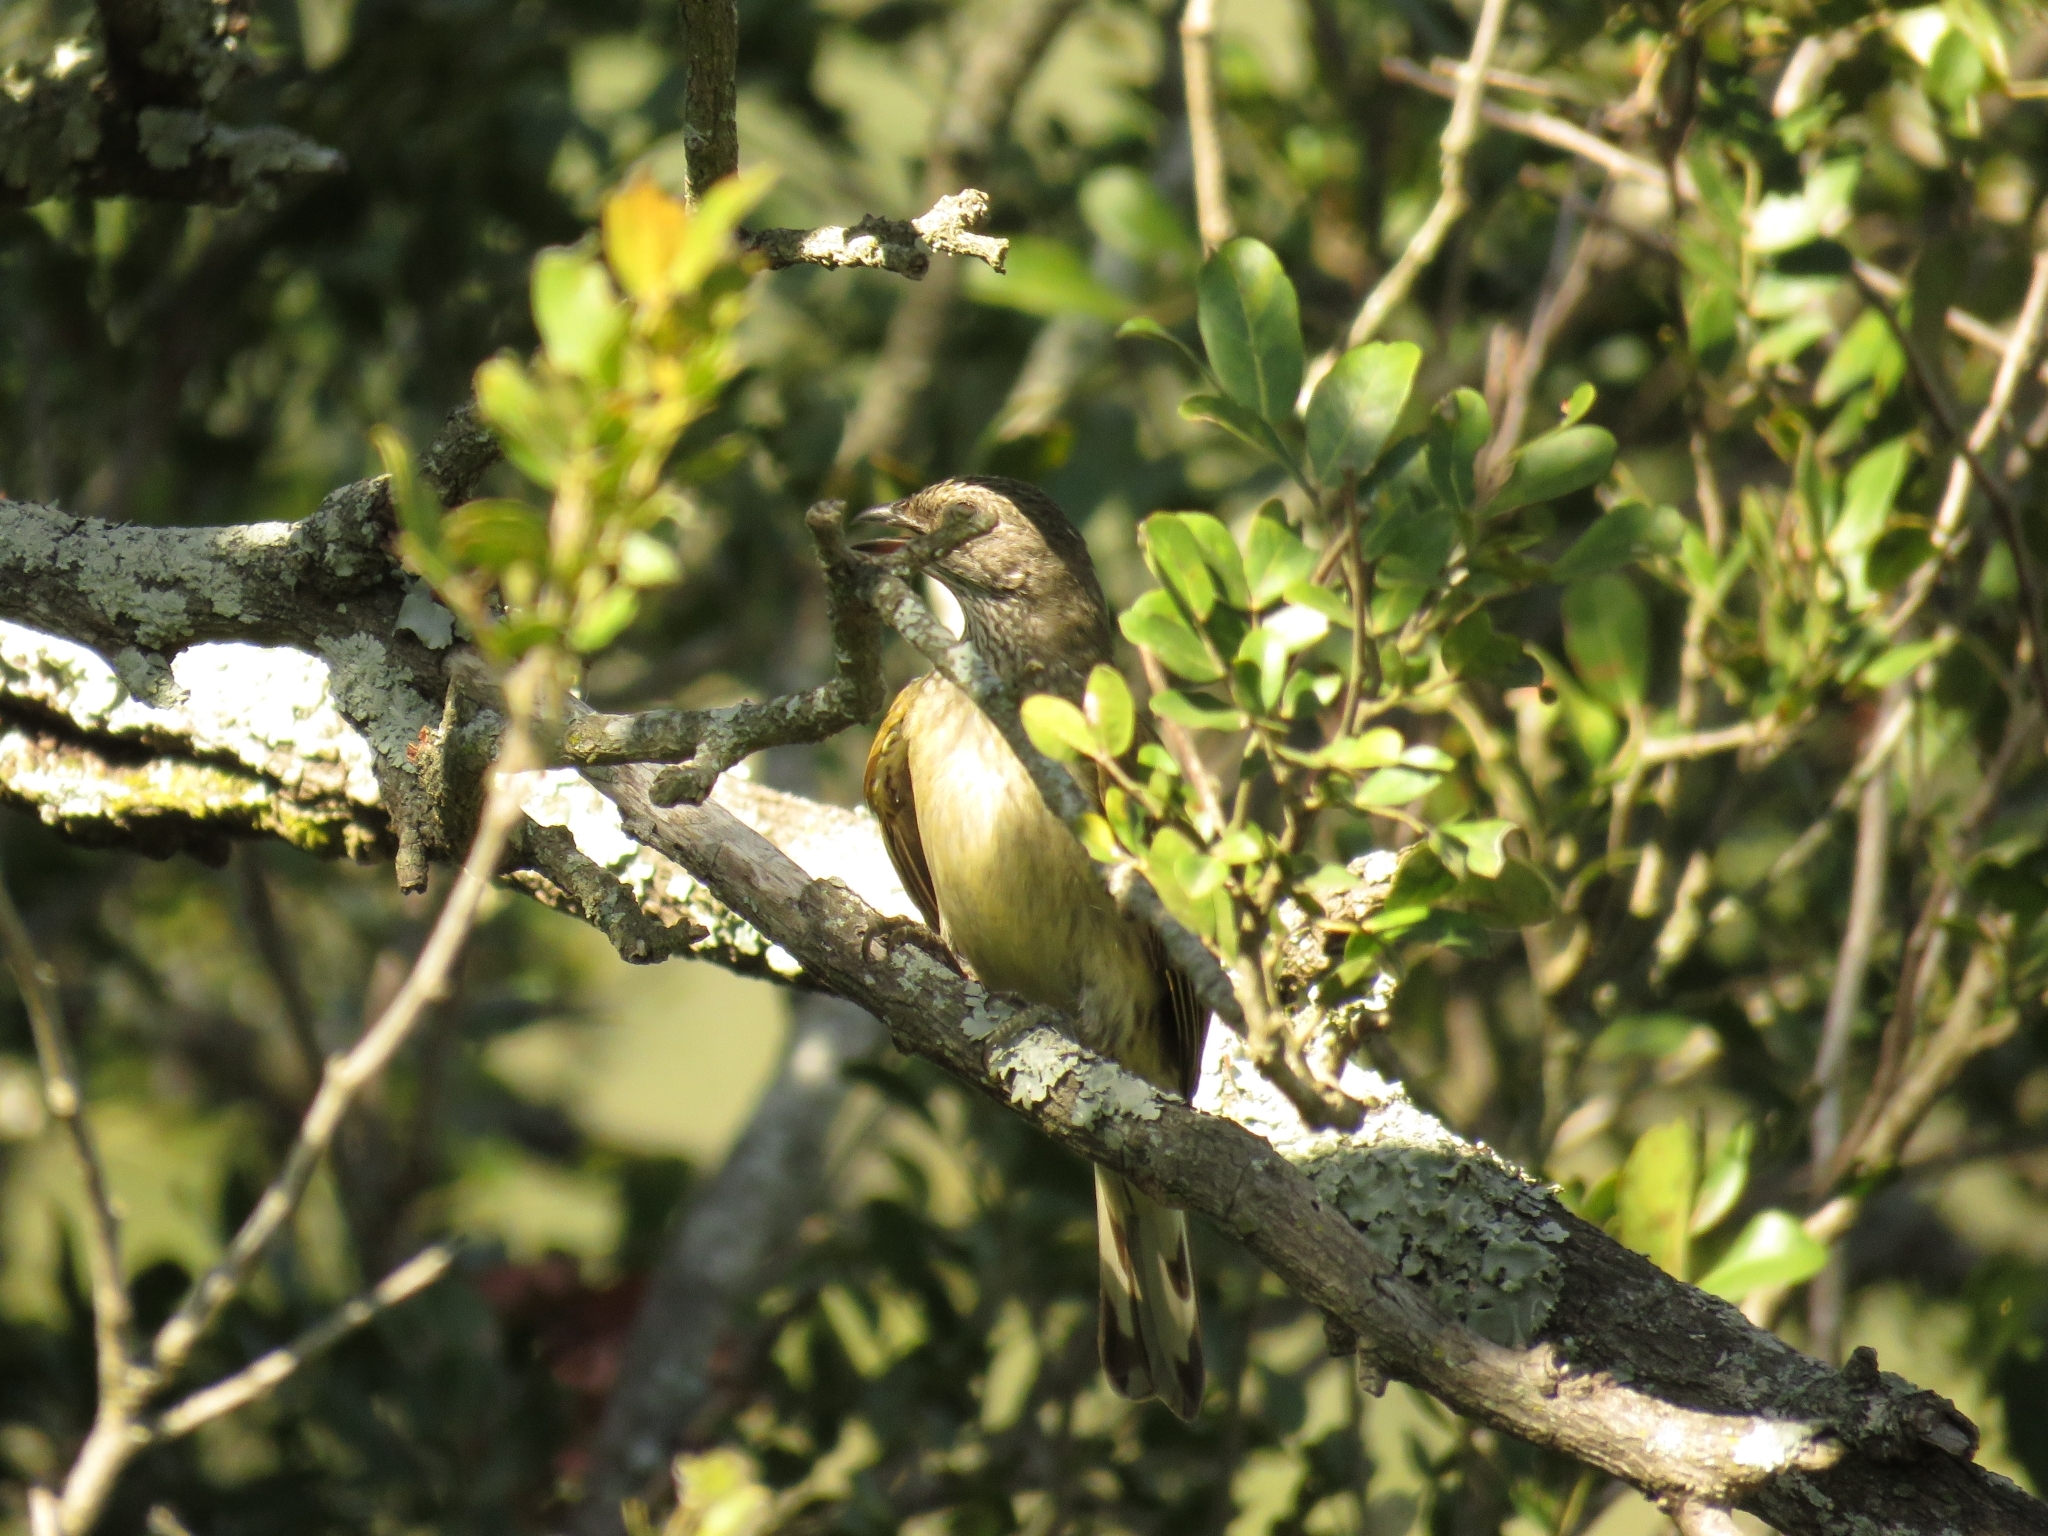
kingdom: Animalia
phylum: Chordata
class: Aves
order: Piciformes
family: Indicatoridae
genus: Indicator
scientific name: Indicator variegatus
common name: Scaly-throated honeyguide
